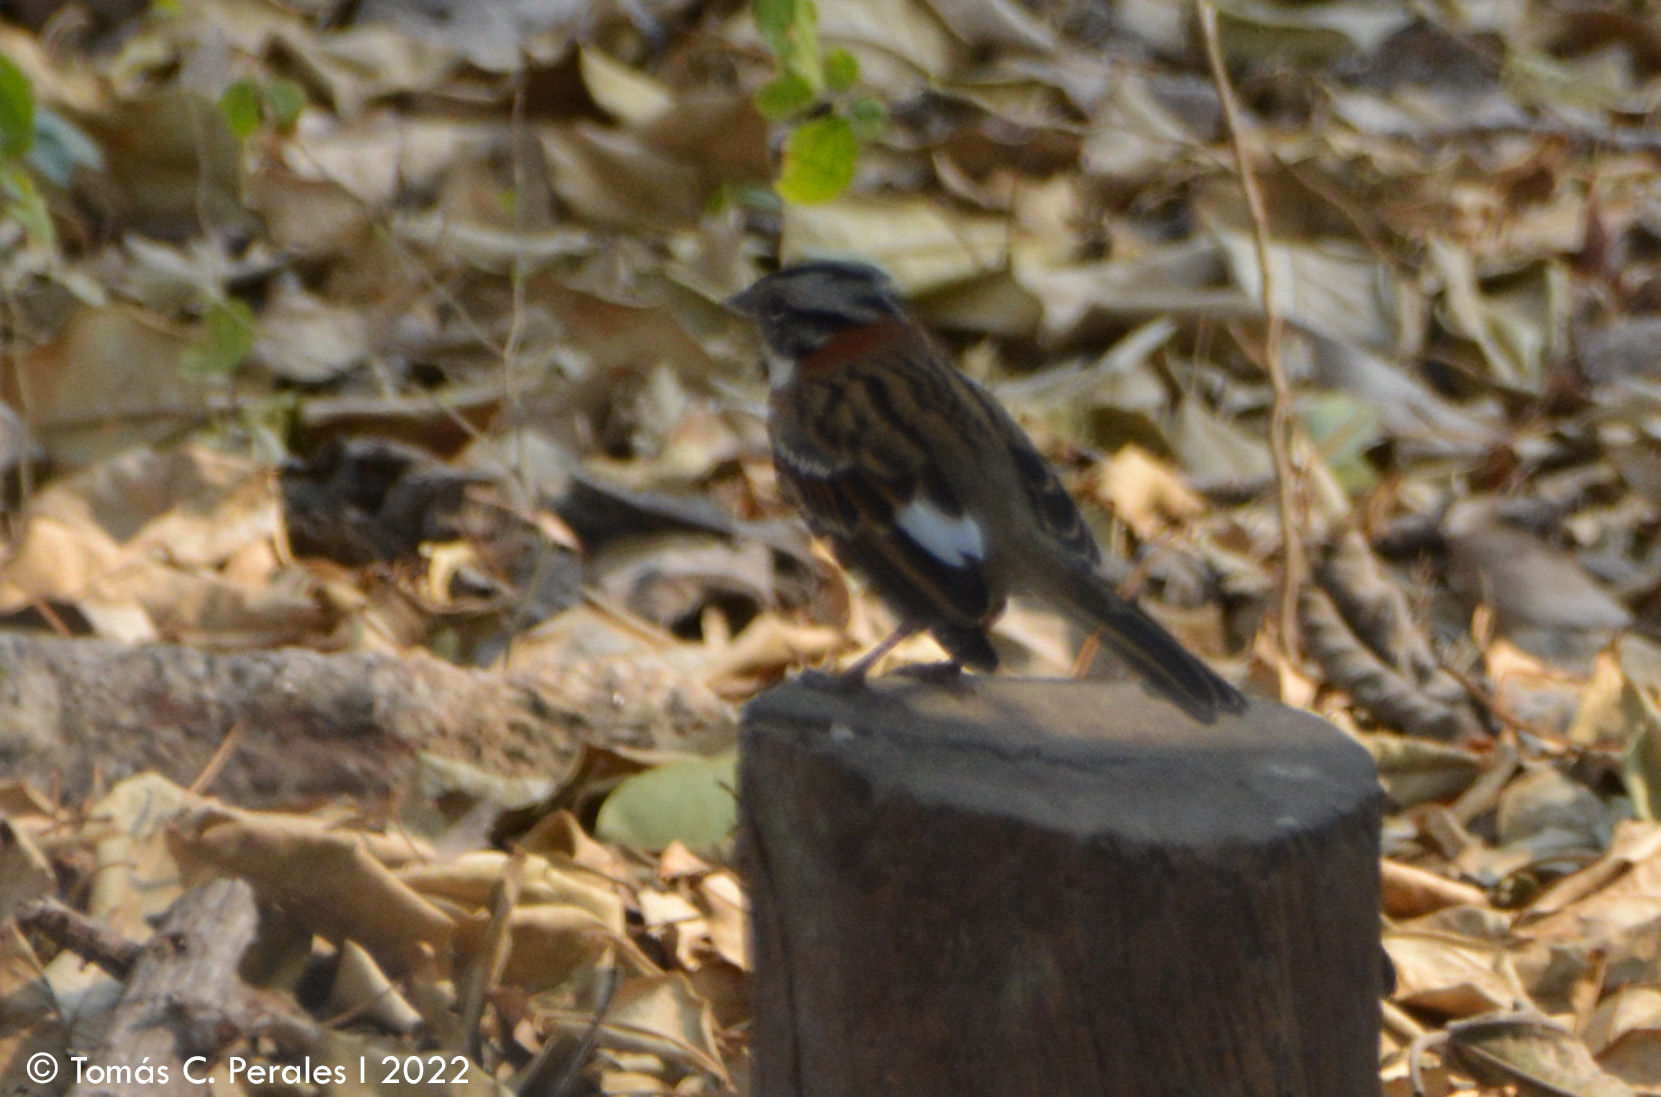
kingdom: Animalia
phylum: Chordata
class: Aves
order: Passeriformes
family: Passerellidae
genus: Zonotrichia
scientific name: Zonotrichia capensis
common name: Rufous-collared sparrow
